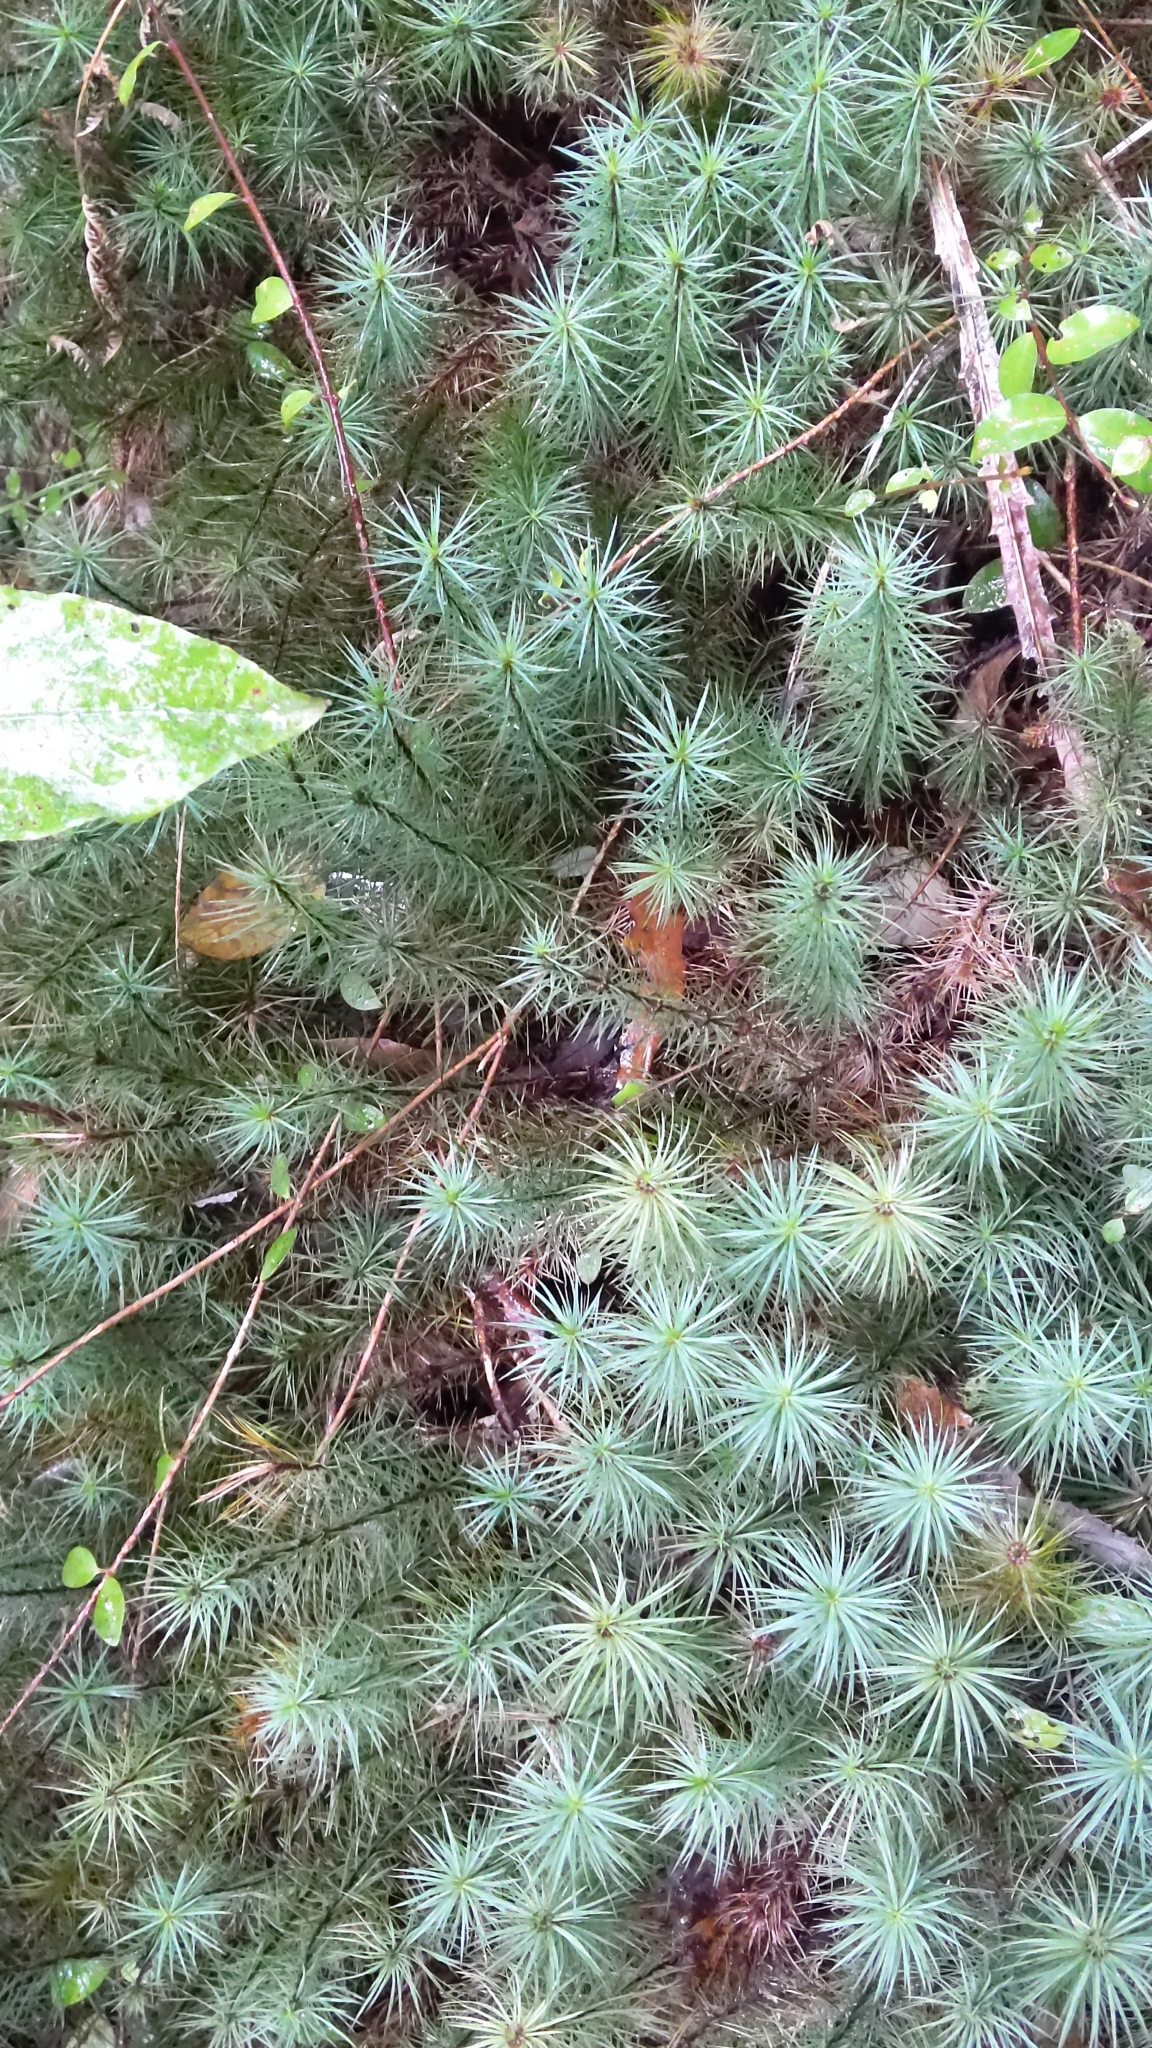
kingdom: Plantae
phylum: Bryophyta
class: Polytrichopsida
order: Polytrichales
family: Polytrichaceae
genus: Dawsonia
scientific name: Dawsonia superba
